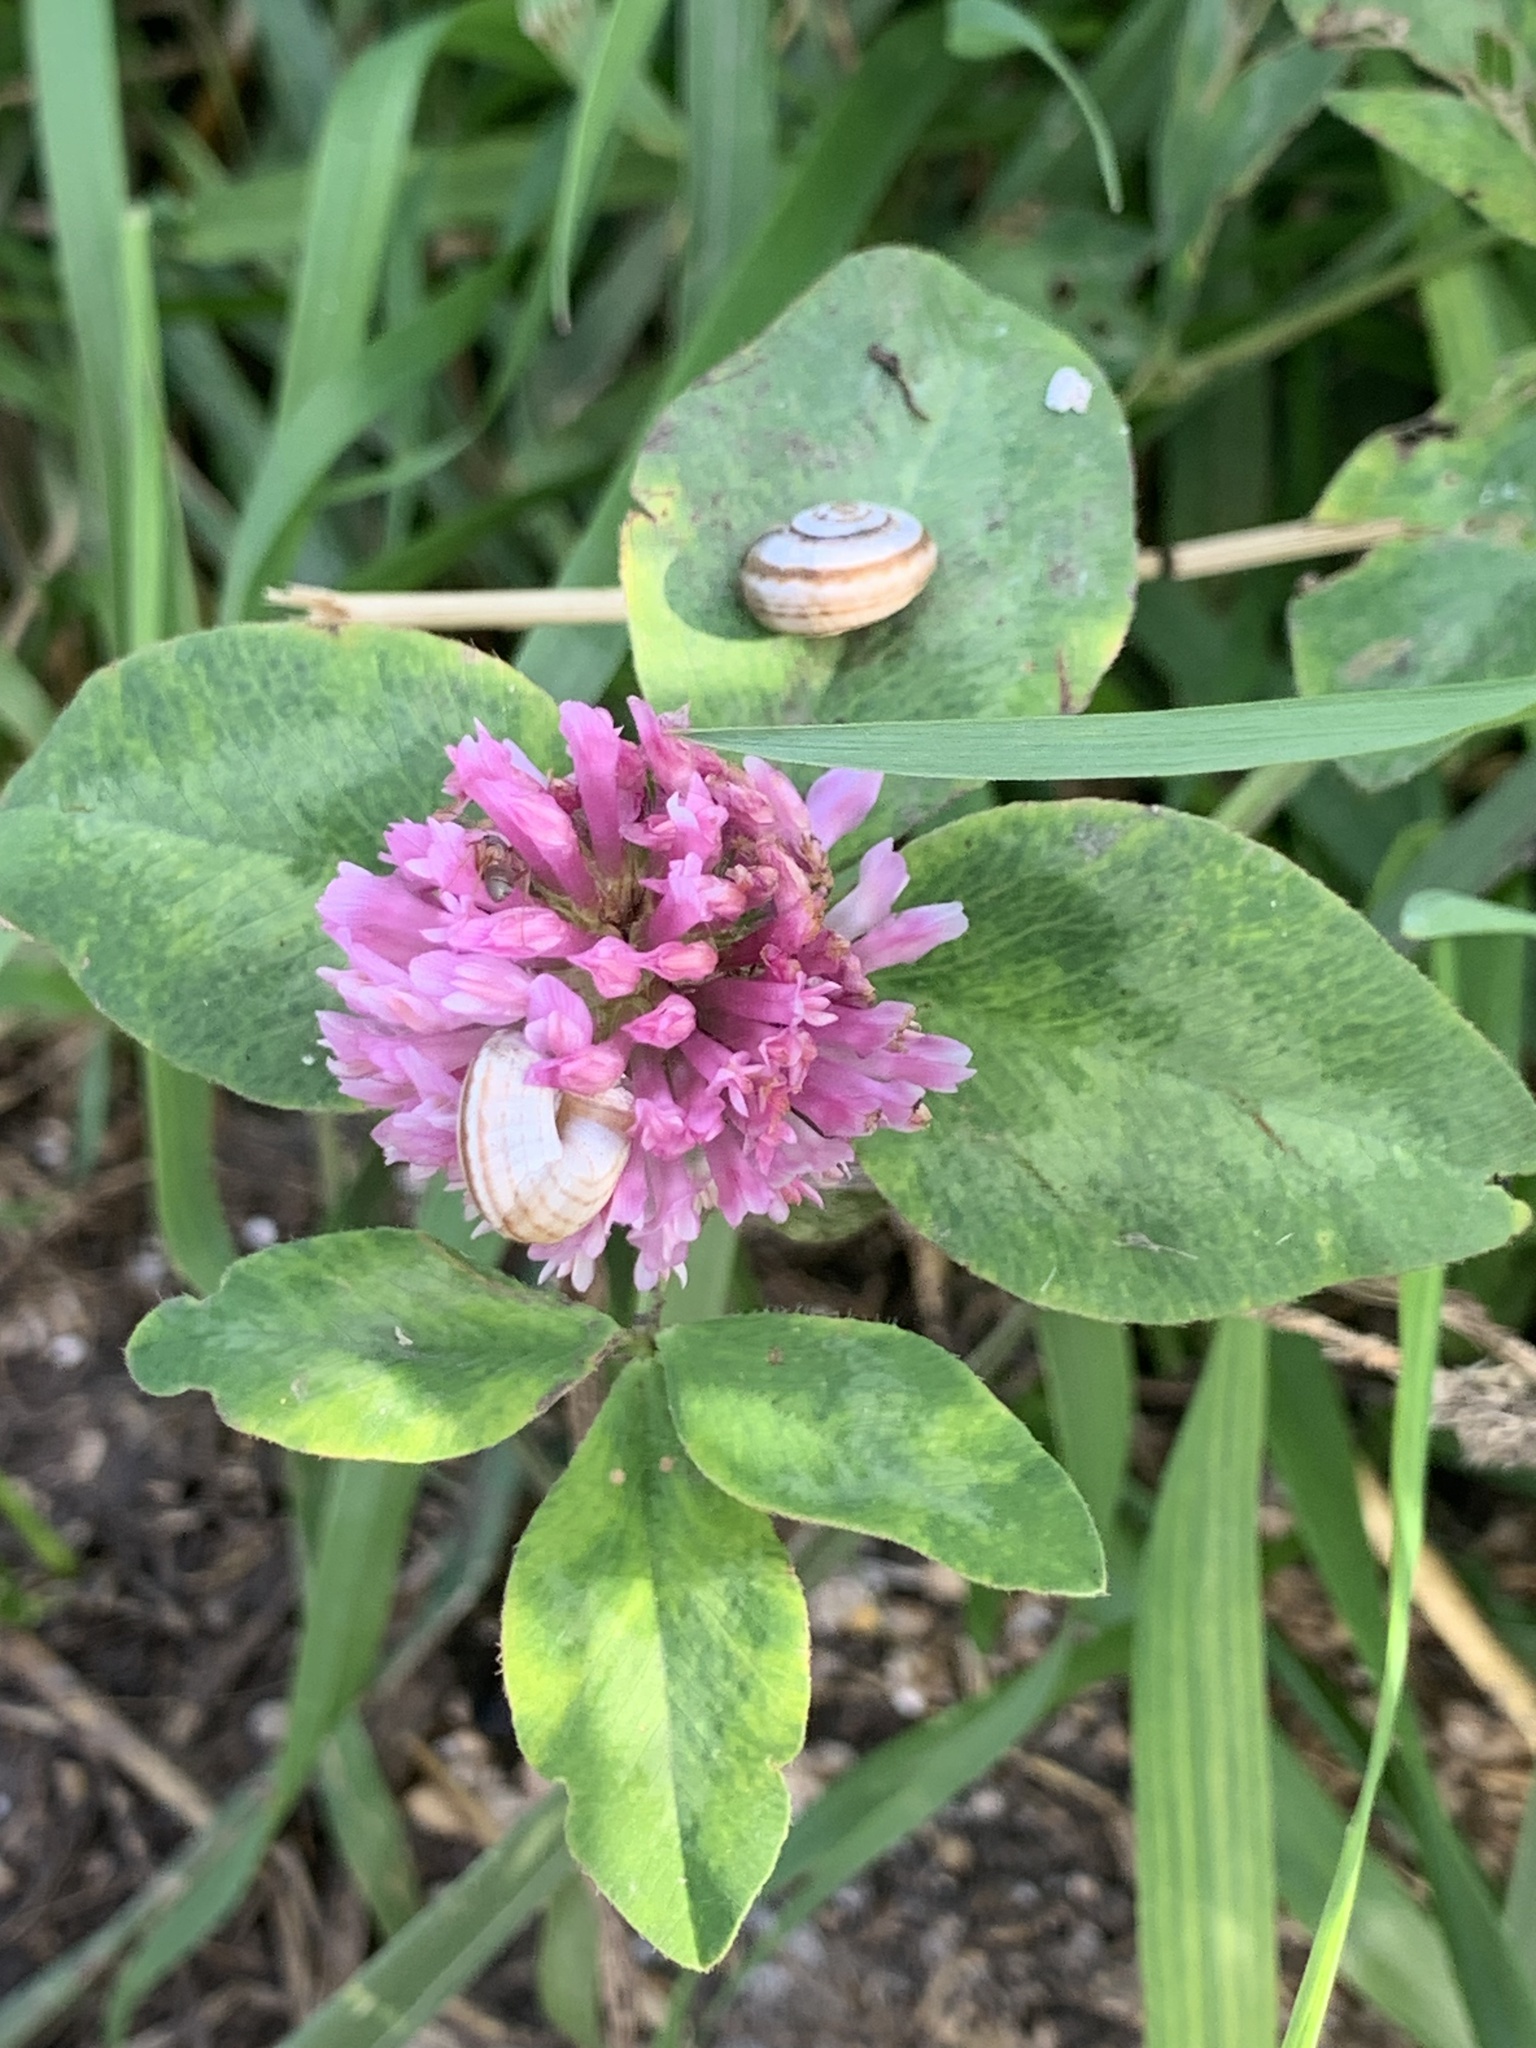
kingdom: Plantae
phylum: Tracheophyta
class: Magnoliopsida
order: Fabales
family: Fabaceae
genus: Trifolium
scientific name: Trifolium pratense
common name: Red clover
